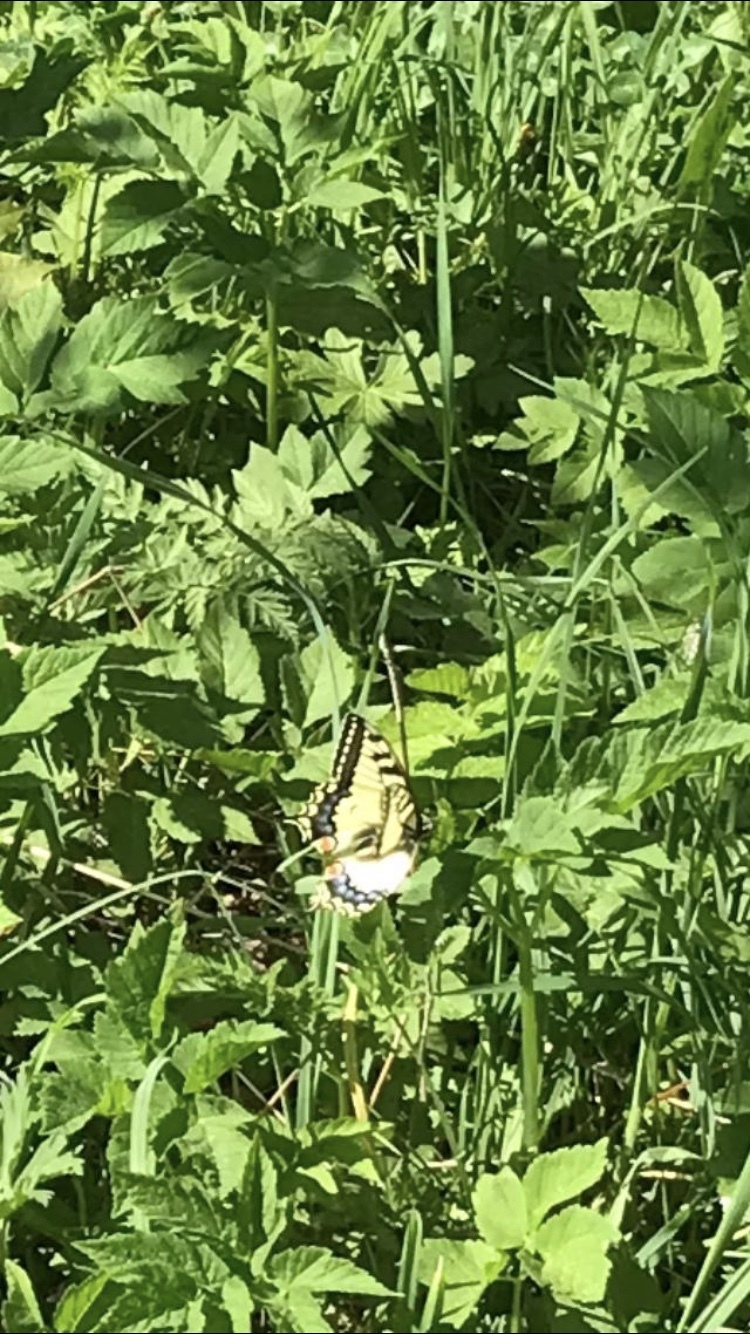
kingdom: Animalia
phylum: Arthropoda
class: Insecta
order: Lepidoptera
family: Papilionidae
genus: Papilio
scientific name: Papilio machaon
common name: Swallowtail
